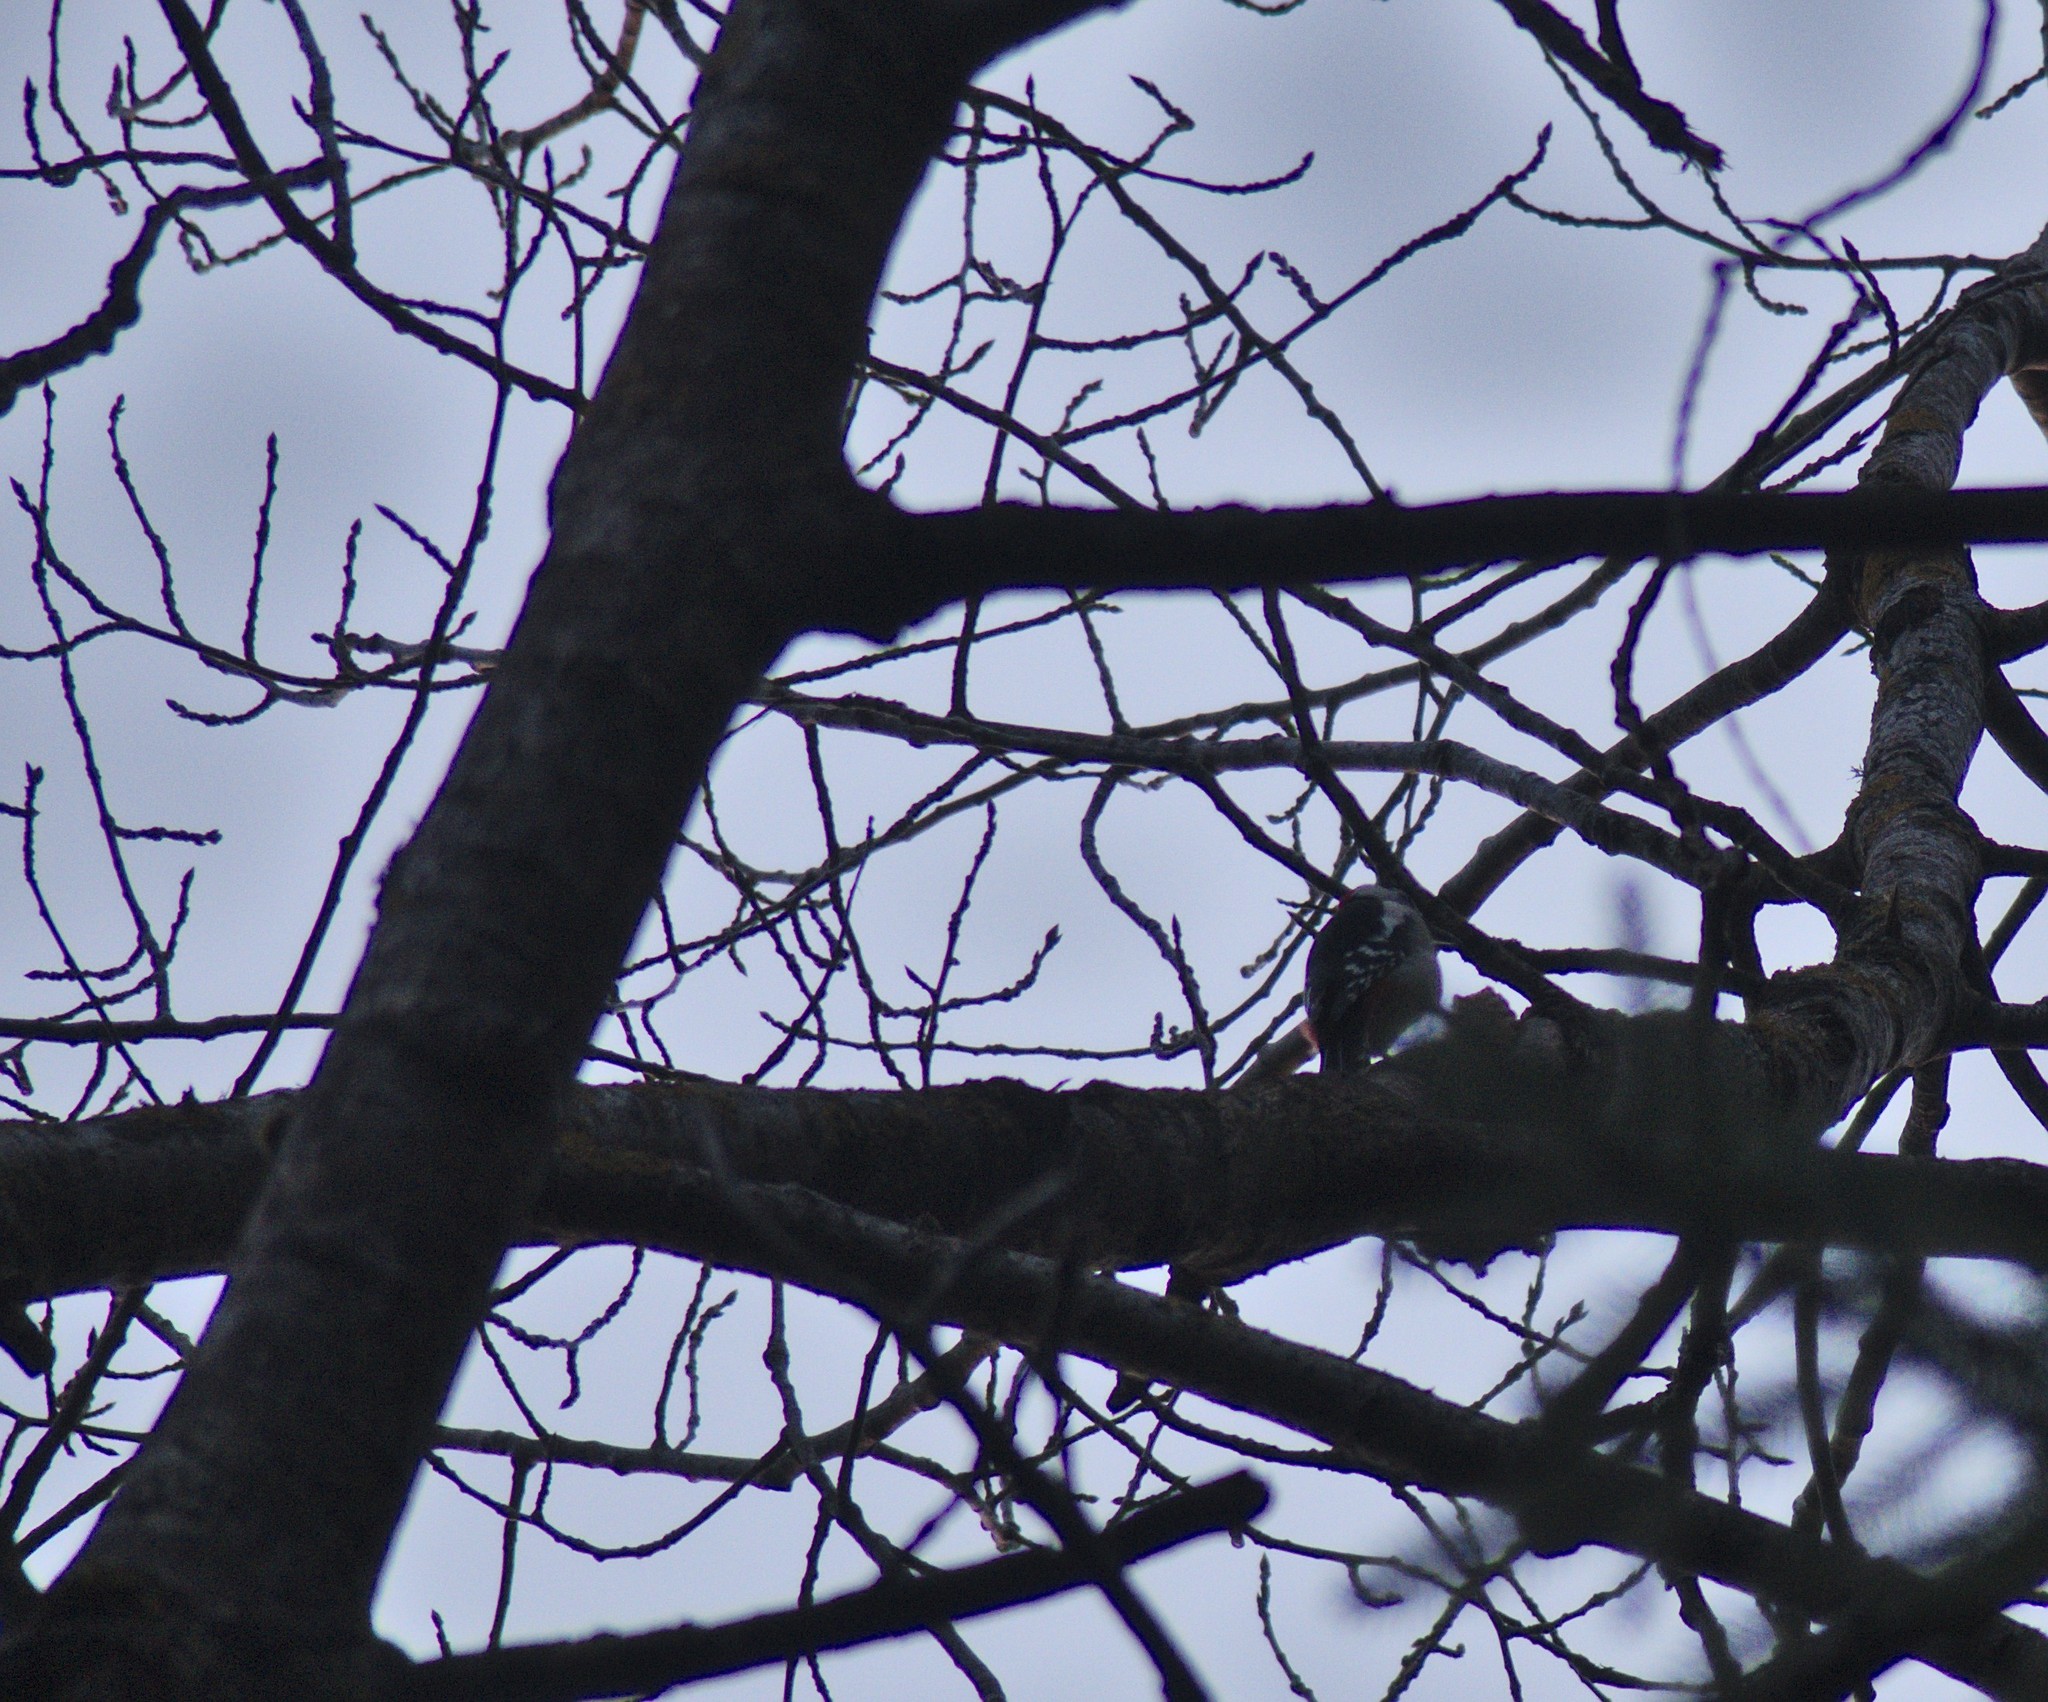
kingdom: Animalia
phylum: Chordata
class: Aves
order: Piciformes
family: Picidae
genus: Dendrocopos
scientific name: Dendrocopos major
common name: Great spotted woodpecker
